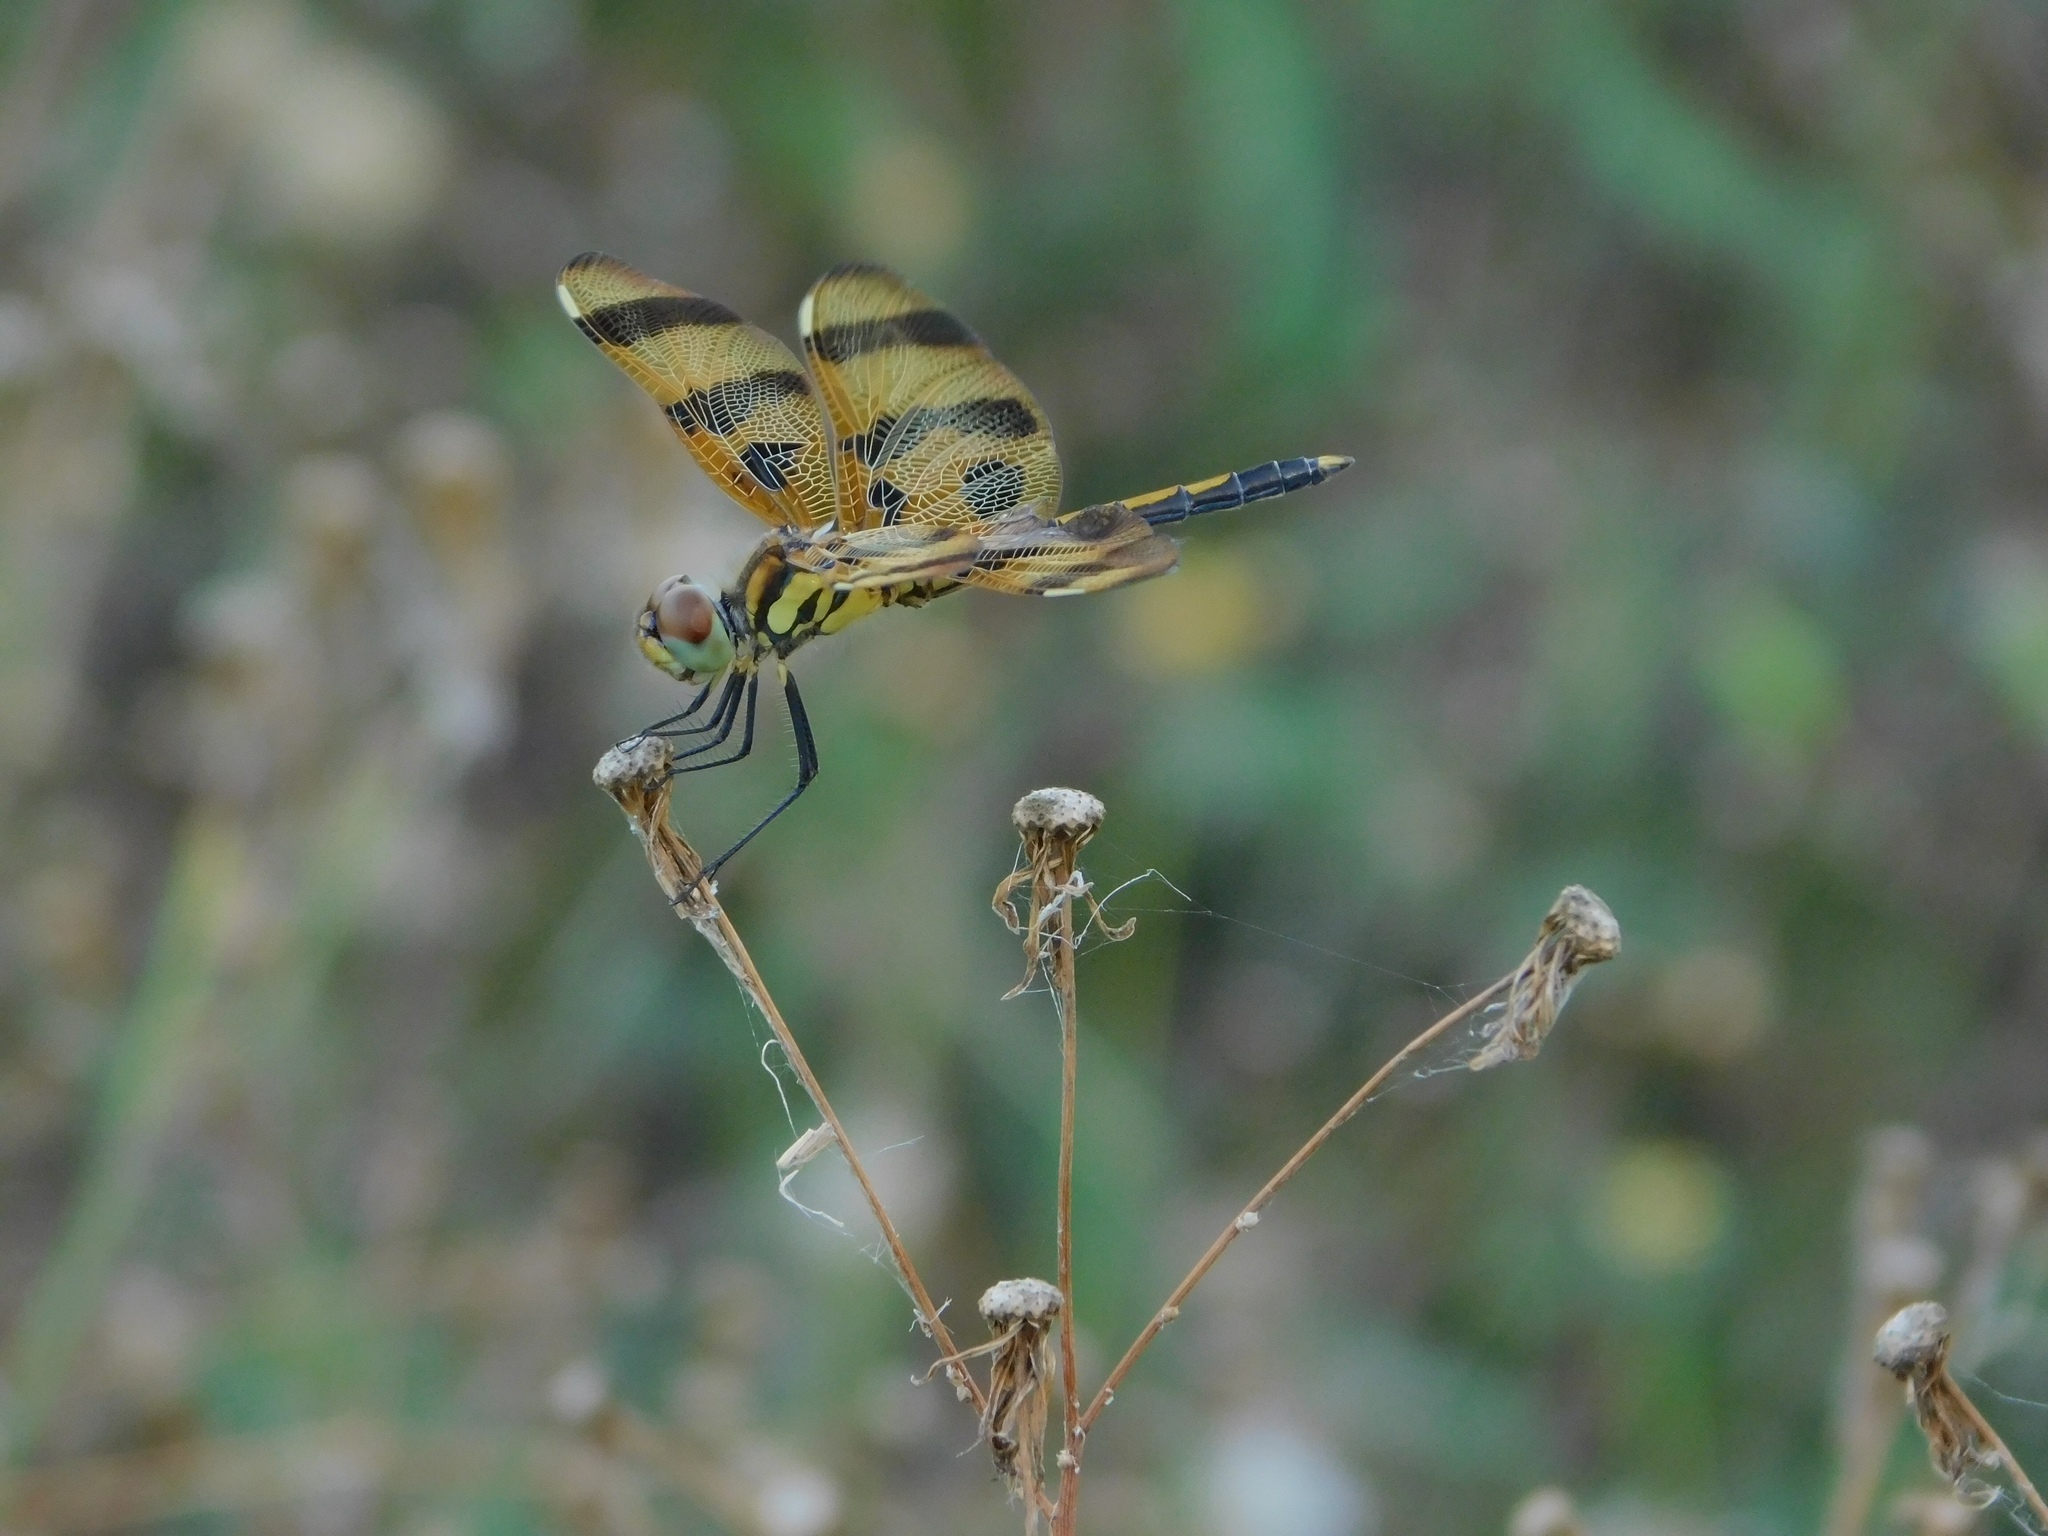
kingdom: Animalia
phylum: Arthropoda
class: Insecta
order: Odonata
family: Libellulidae
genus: Celithemis
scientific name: Celithemis eponina
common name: Halloween pennant
